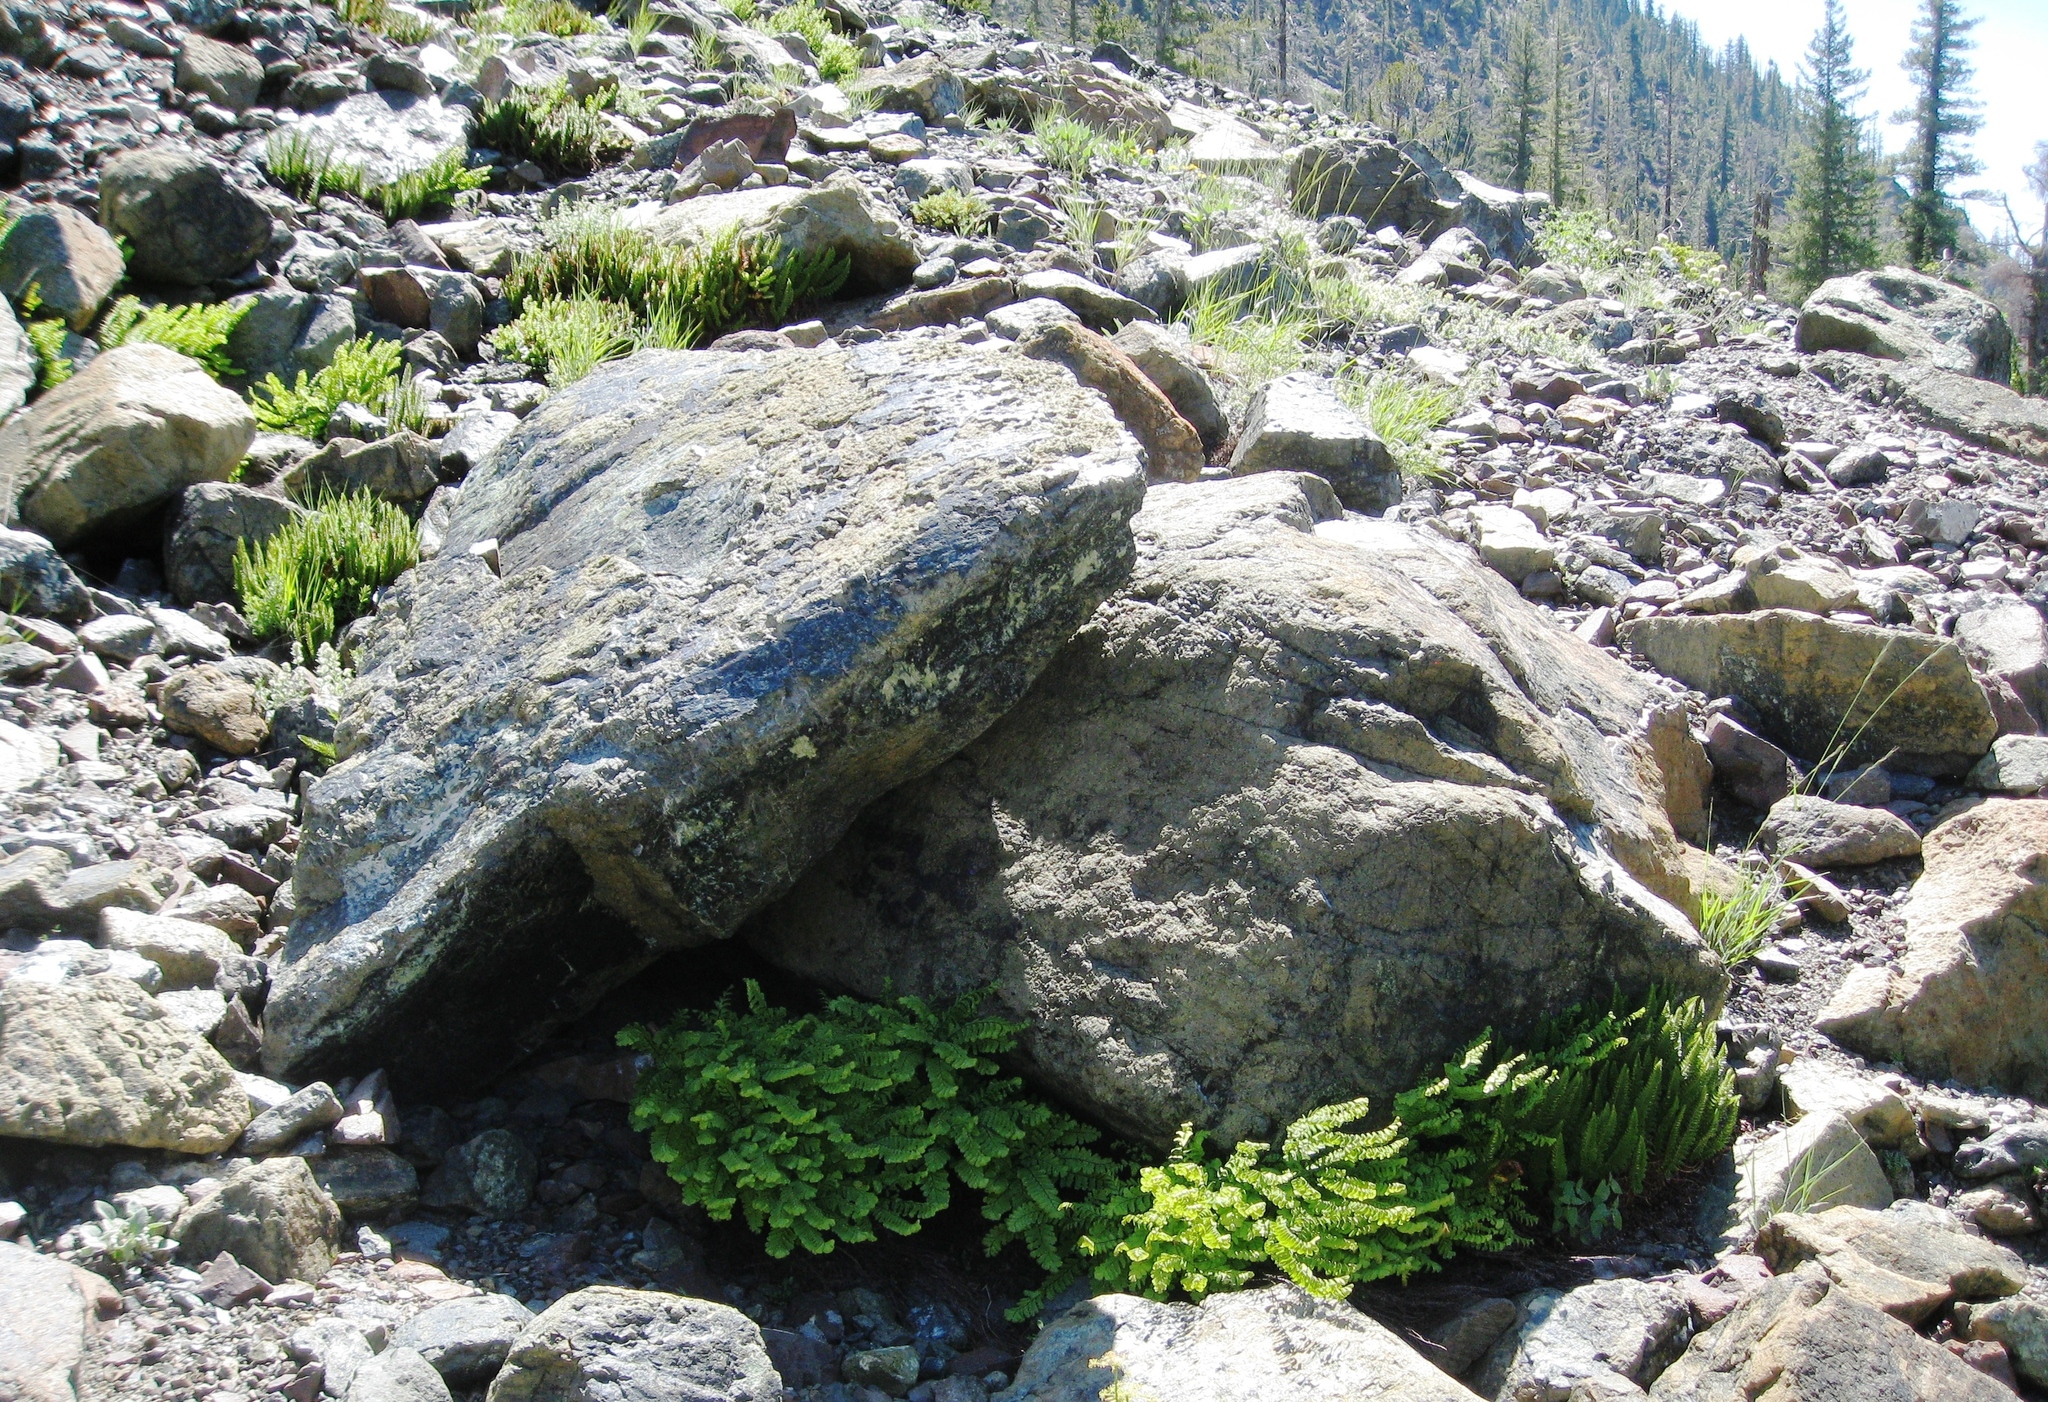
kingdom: Plantae
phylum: Tracheophyta
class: Polypodiopsida
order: Polypodiales
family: Pteridaceae
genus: Adiantum
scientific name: Adiantum aleuticum
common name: Aleutian maidenhair fern
